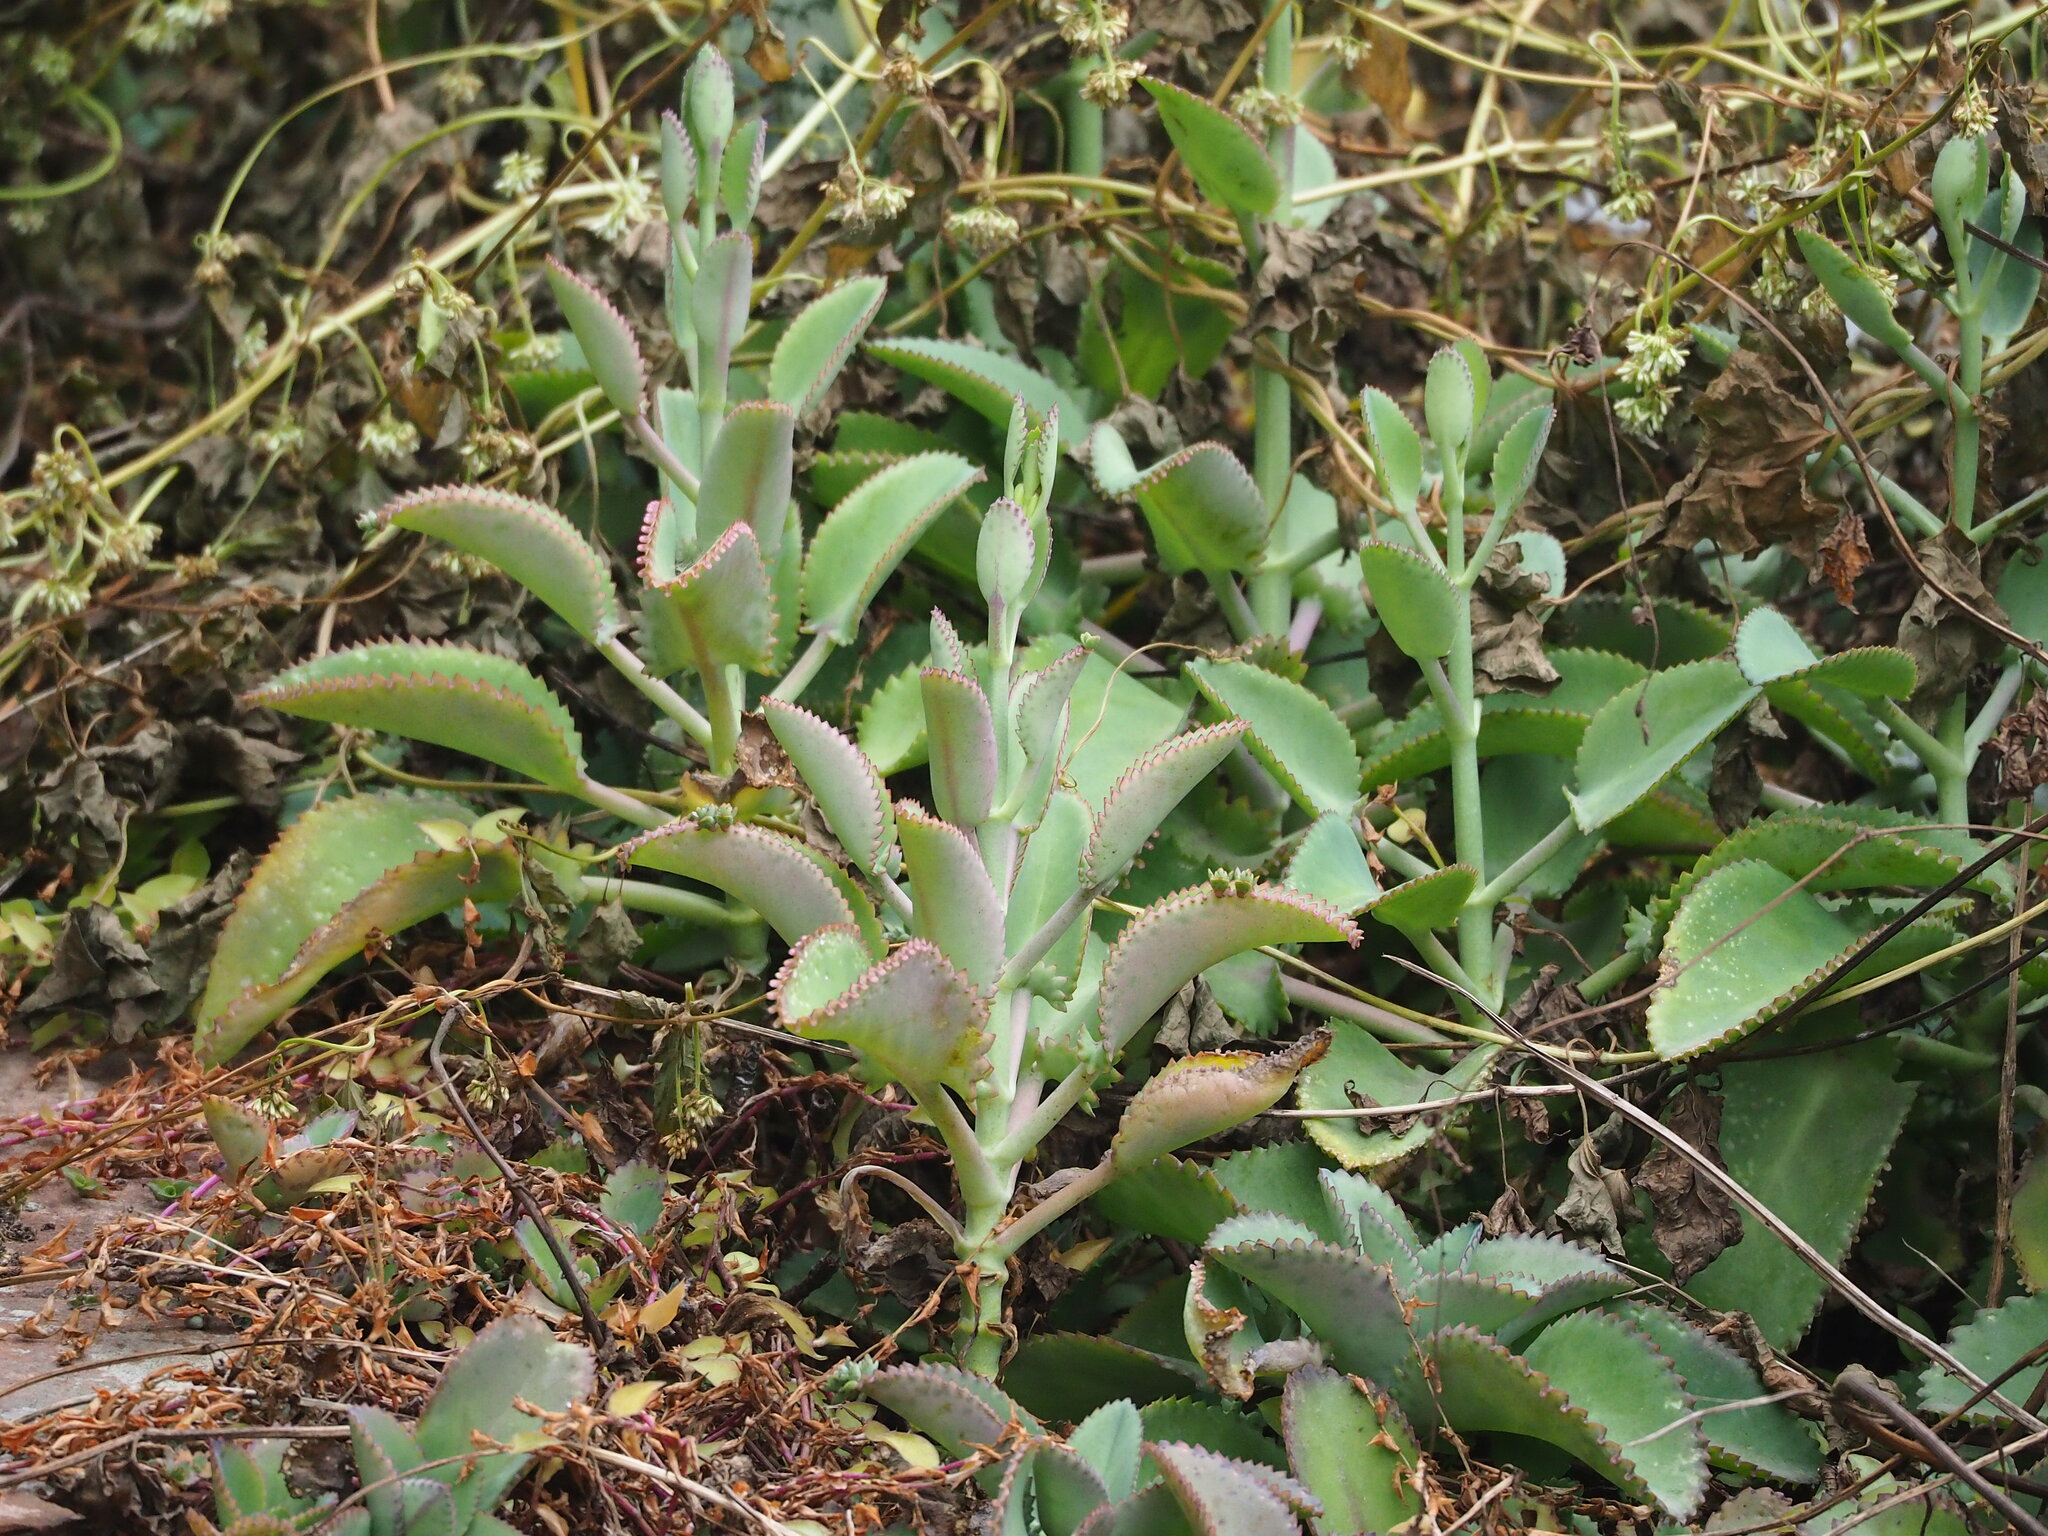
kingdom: Plantae
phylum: Tracheophyta
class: Magnoliopsida
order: Saxifragales
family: Crassulaceae
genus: Kalanchoe
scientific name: Kalanchoe laetivirens
